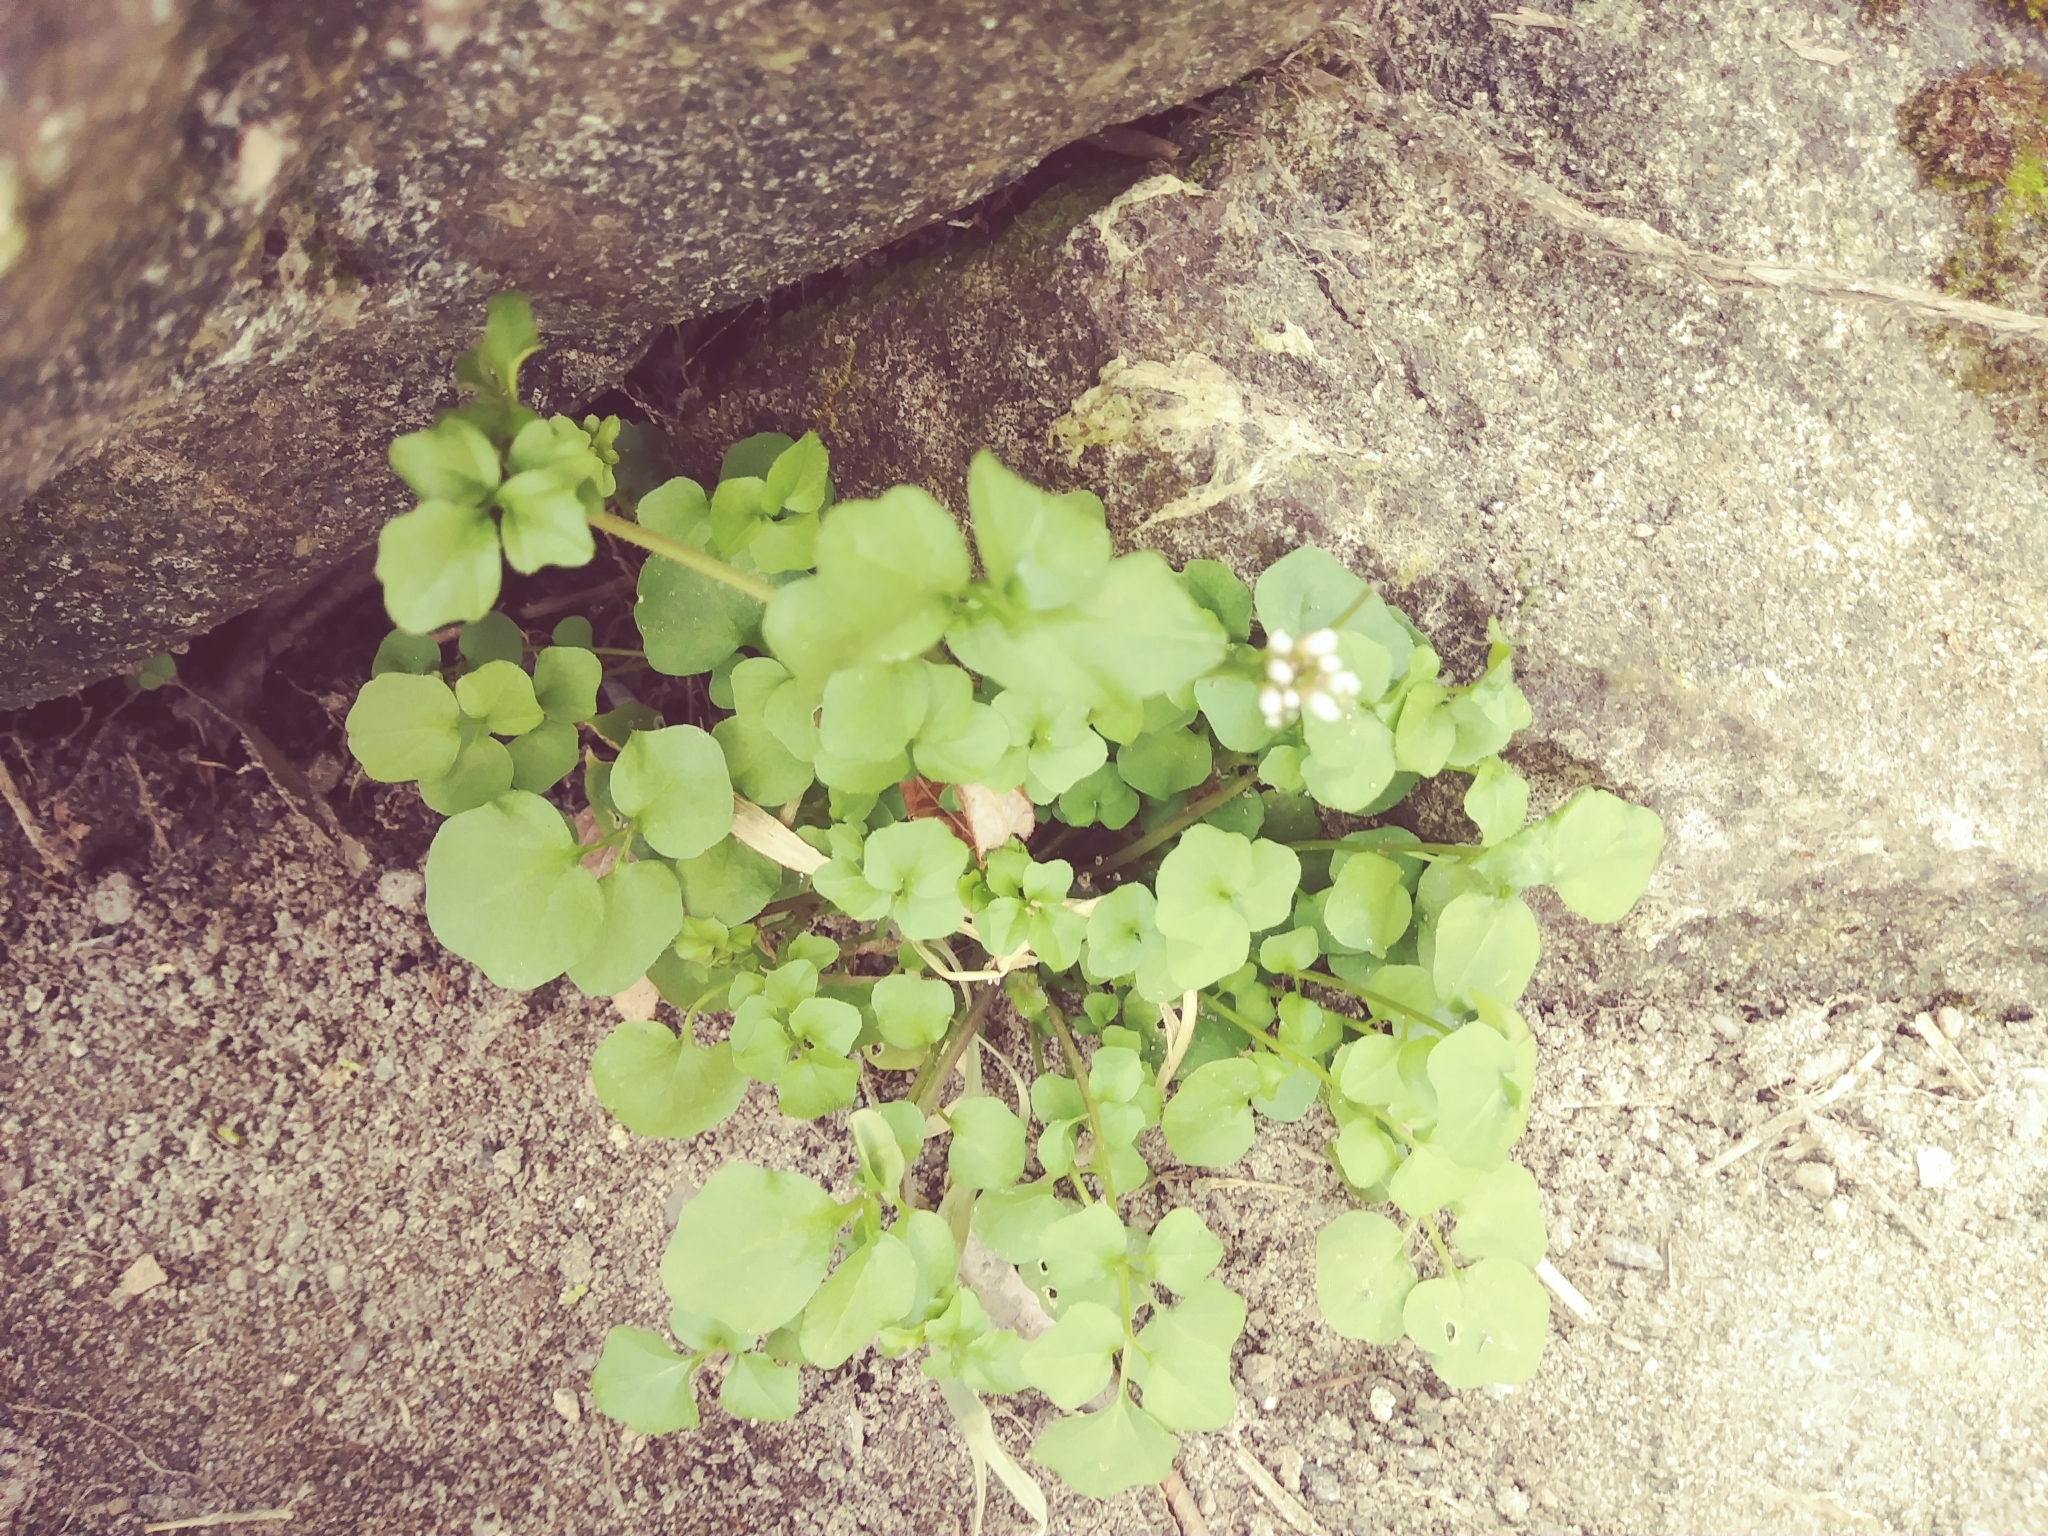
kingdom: Plantae
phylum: Tracheophyta
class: Magnoliopsida
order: Brassicales
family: Brassicaceae
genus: Cardamine
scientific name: Cardamine hirsuta
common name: Hairy bittercress
